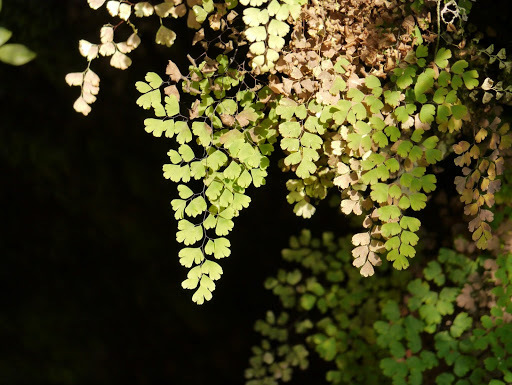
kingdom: Plantae
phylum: Tracheophyta
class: Polypodiopsida
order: Polypodiales
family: Pteridaceae
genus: Adiantum
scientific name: Adiantum raddianum
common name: Delta maidenhair fern
